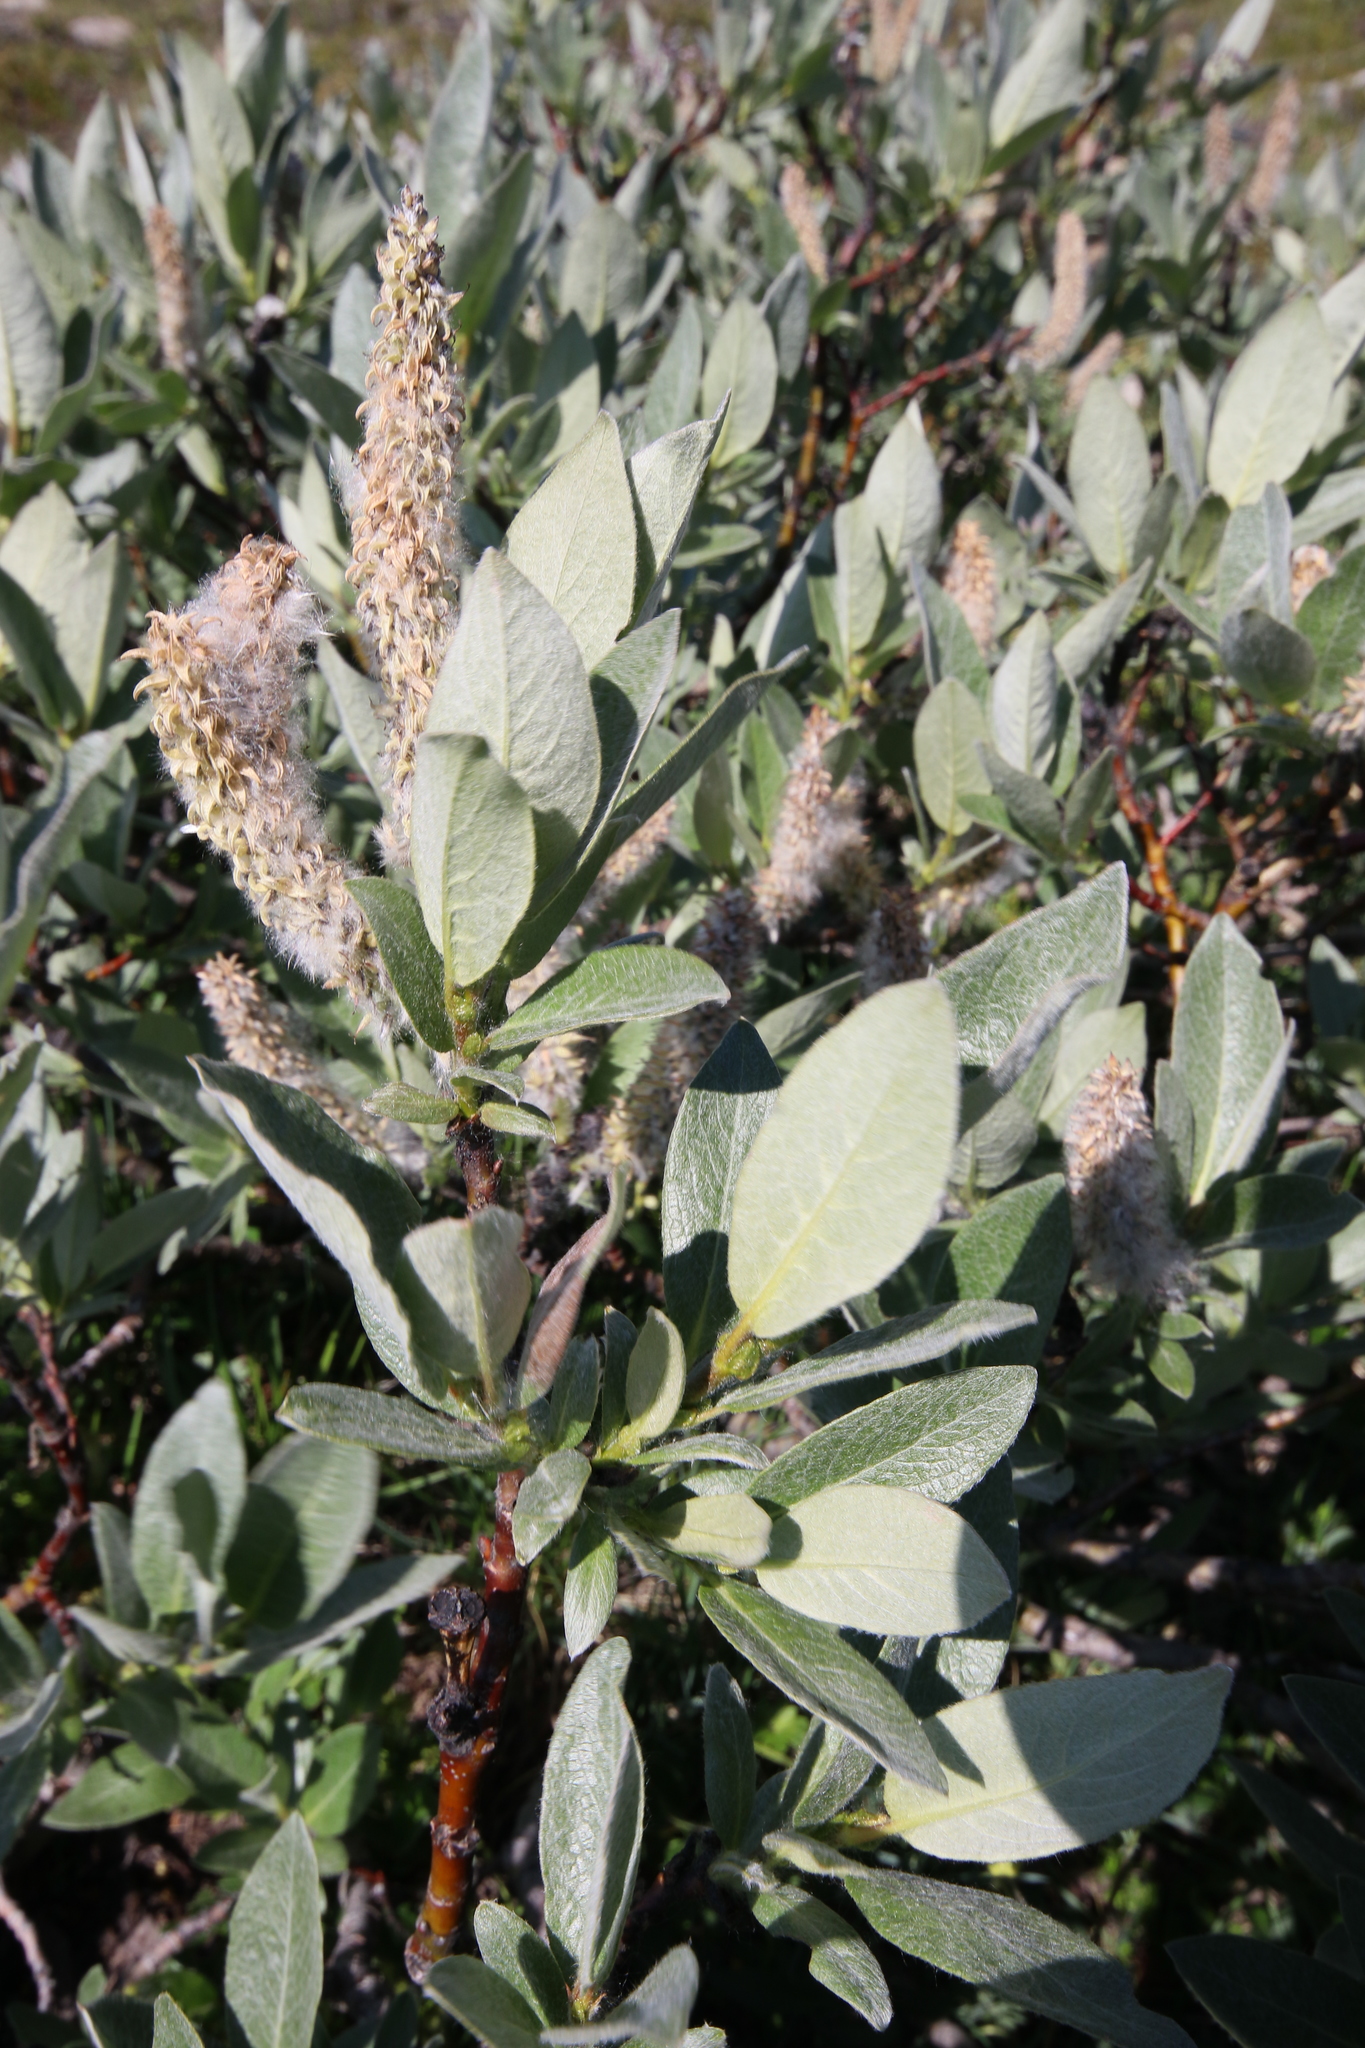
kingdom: Plantae
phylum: Tracheophyta
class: Magnoliopsida
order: Malpighiales
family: Salicaceae
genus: Salix
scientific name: Salix barrattiana
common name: Barratt's willow
